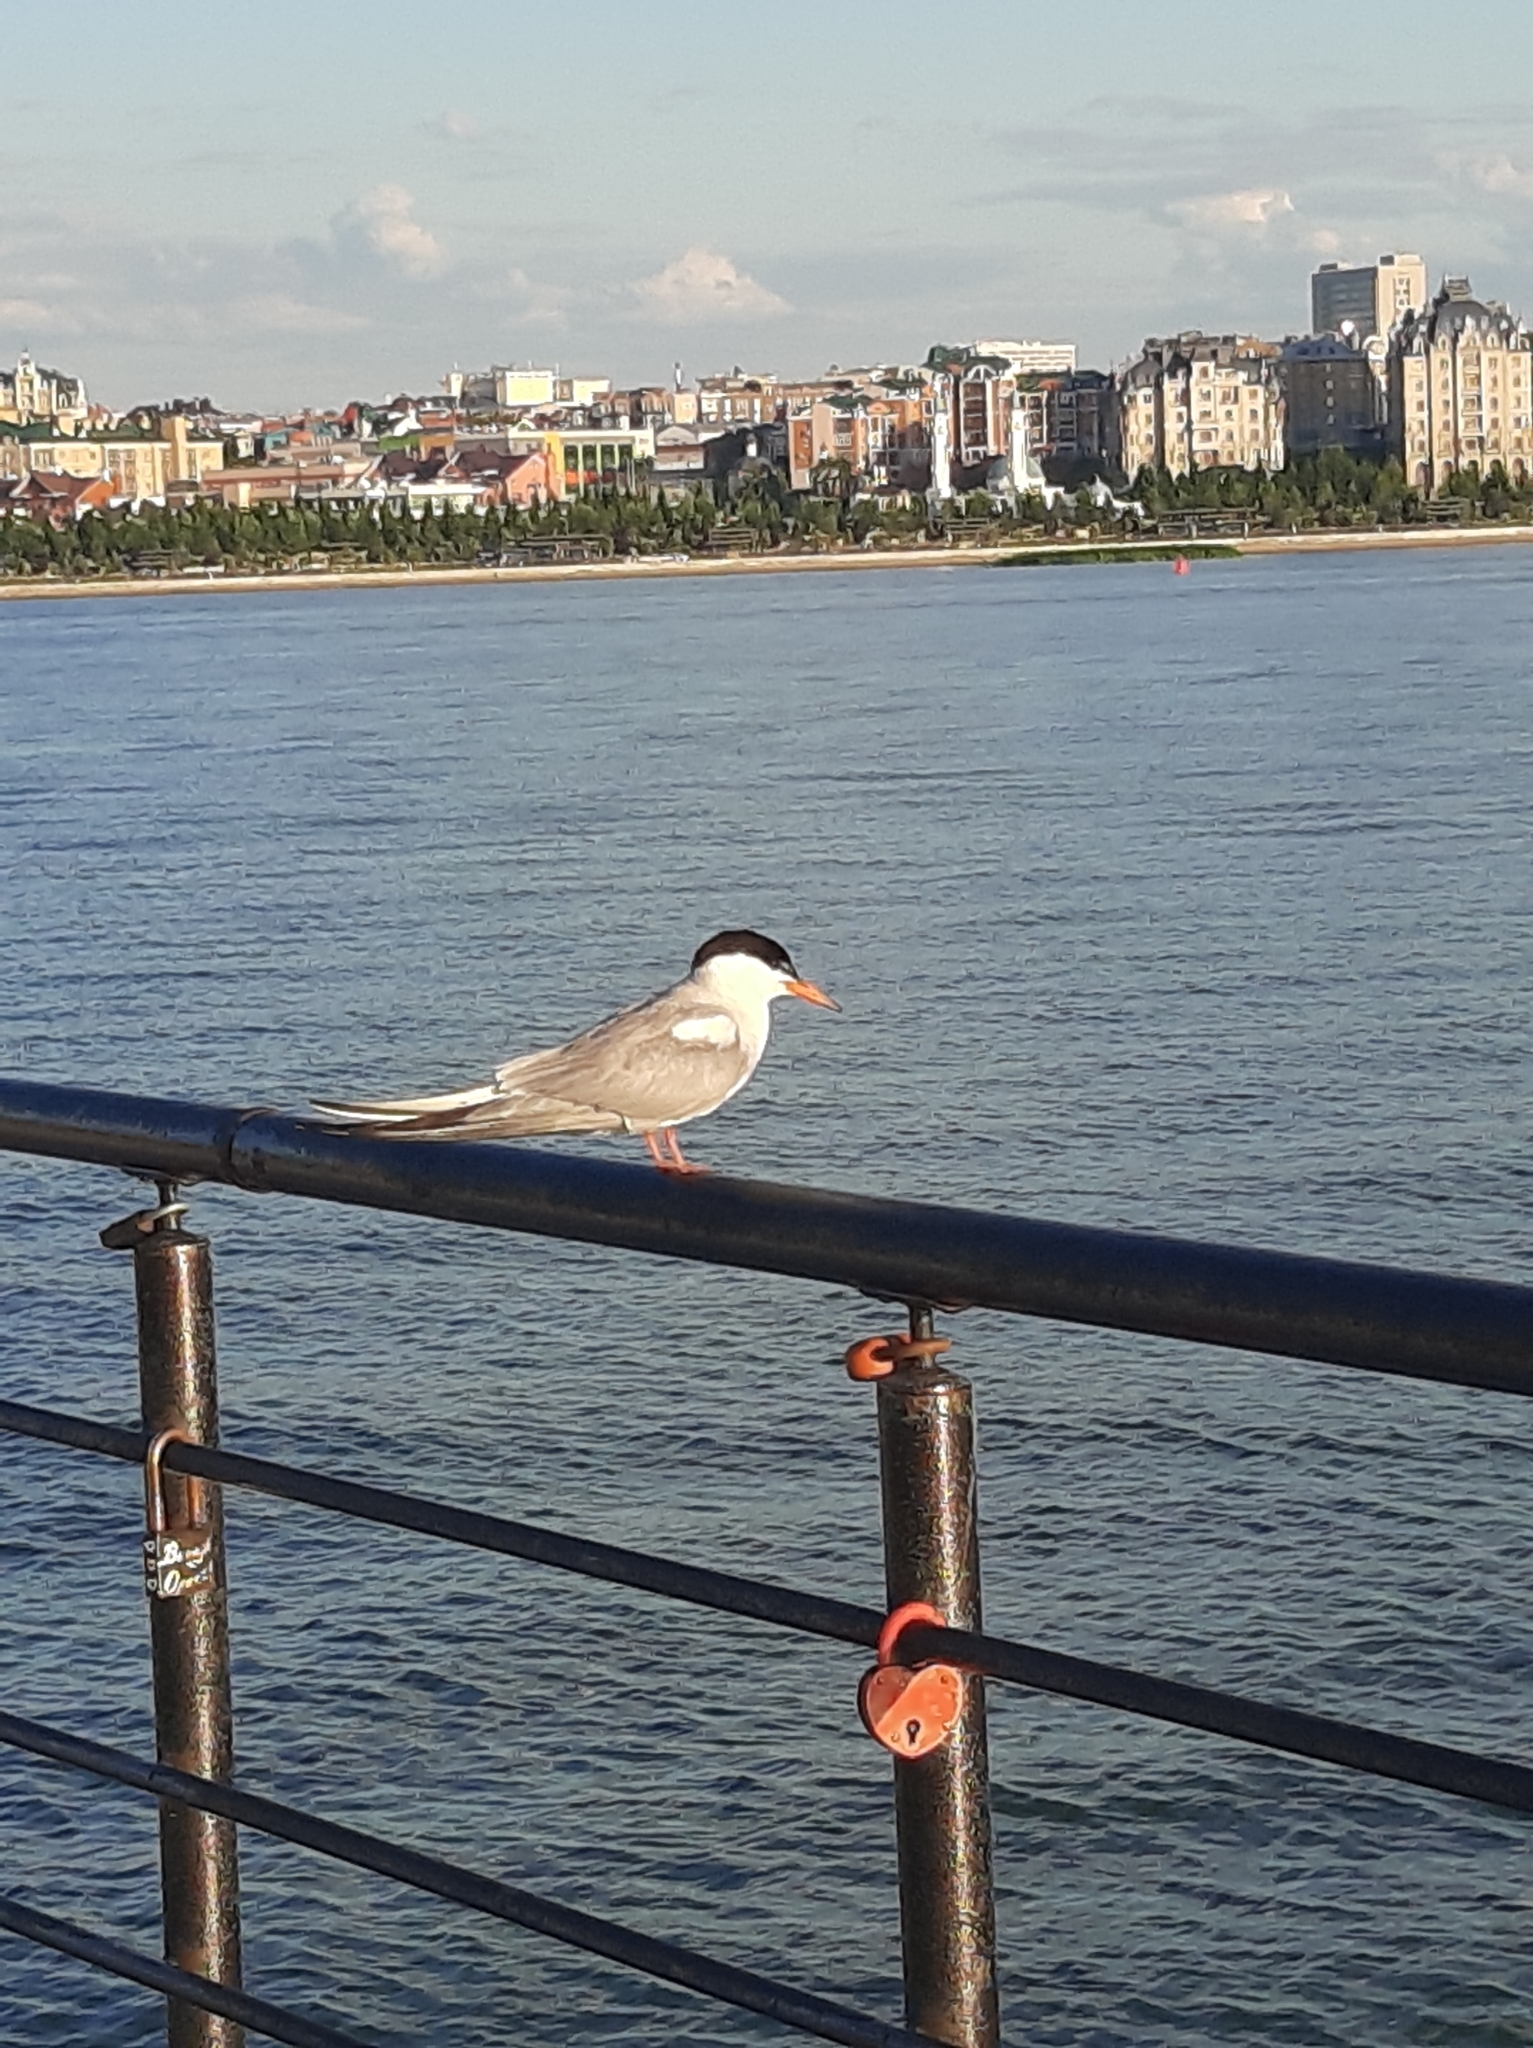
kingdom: Animalia
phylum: Chordata
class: Aves
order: Charadriiformes
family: Laridae
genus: Sterna
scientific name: Sterna hirundo
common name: Common tern
